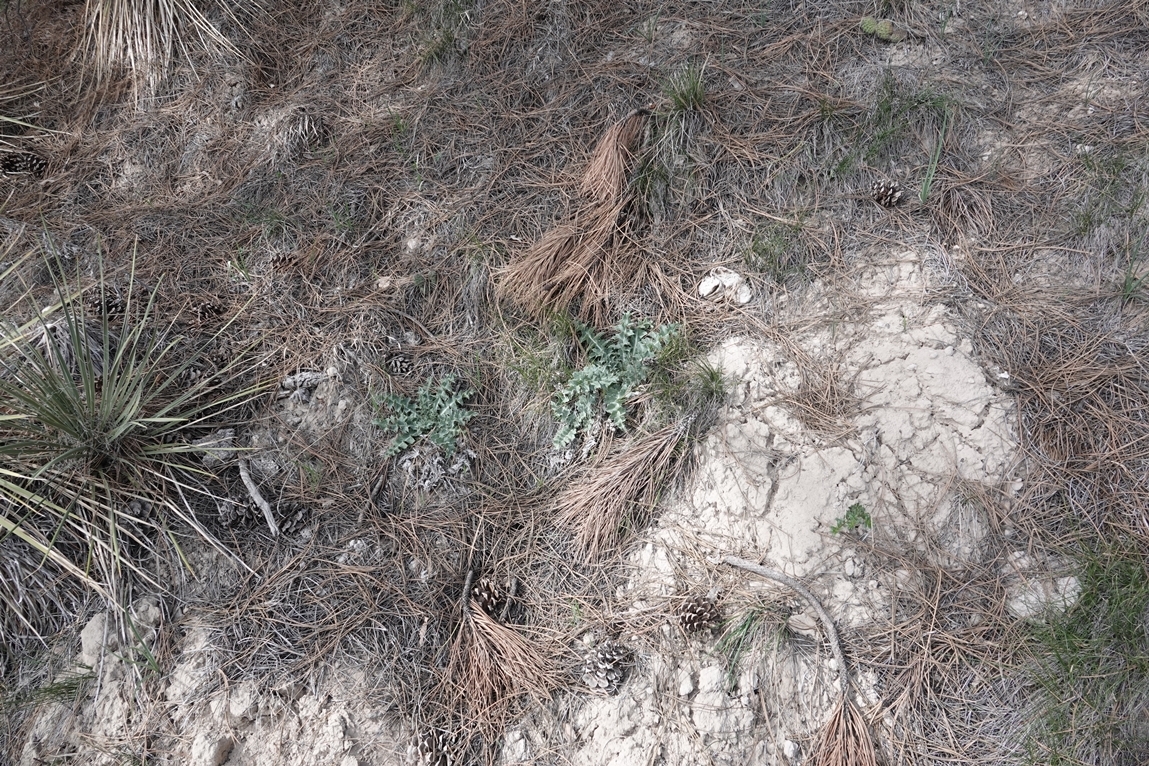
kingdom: Plantae
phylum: Tracheophyta
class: Magnoliopsida
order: Asterales
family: Asteraceae
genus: Cirsium
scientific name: Cirsium undulatum
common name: Pasture thistle
